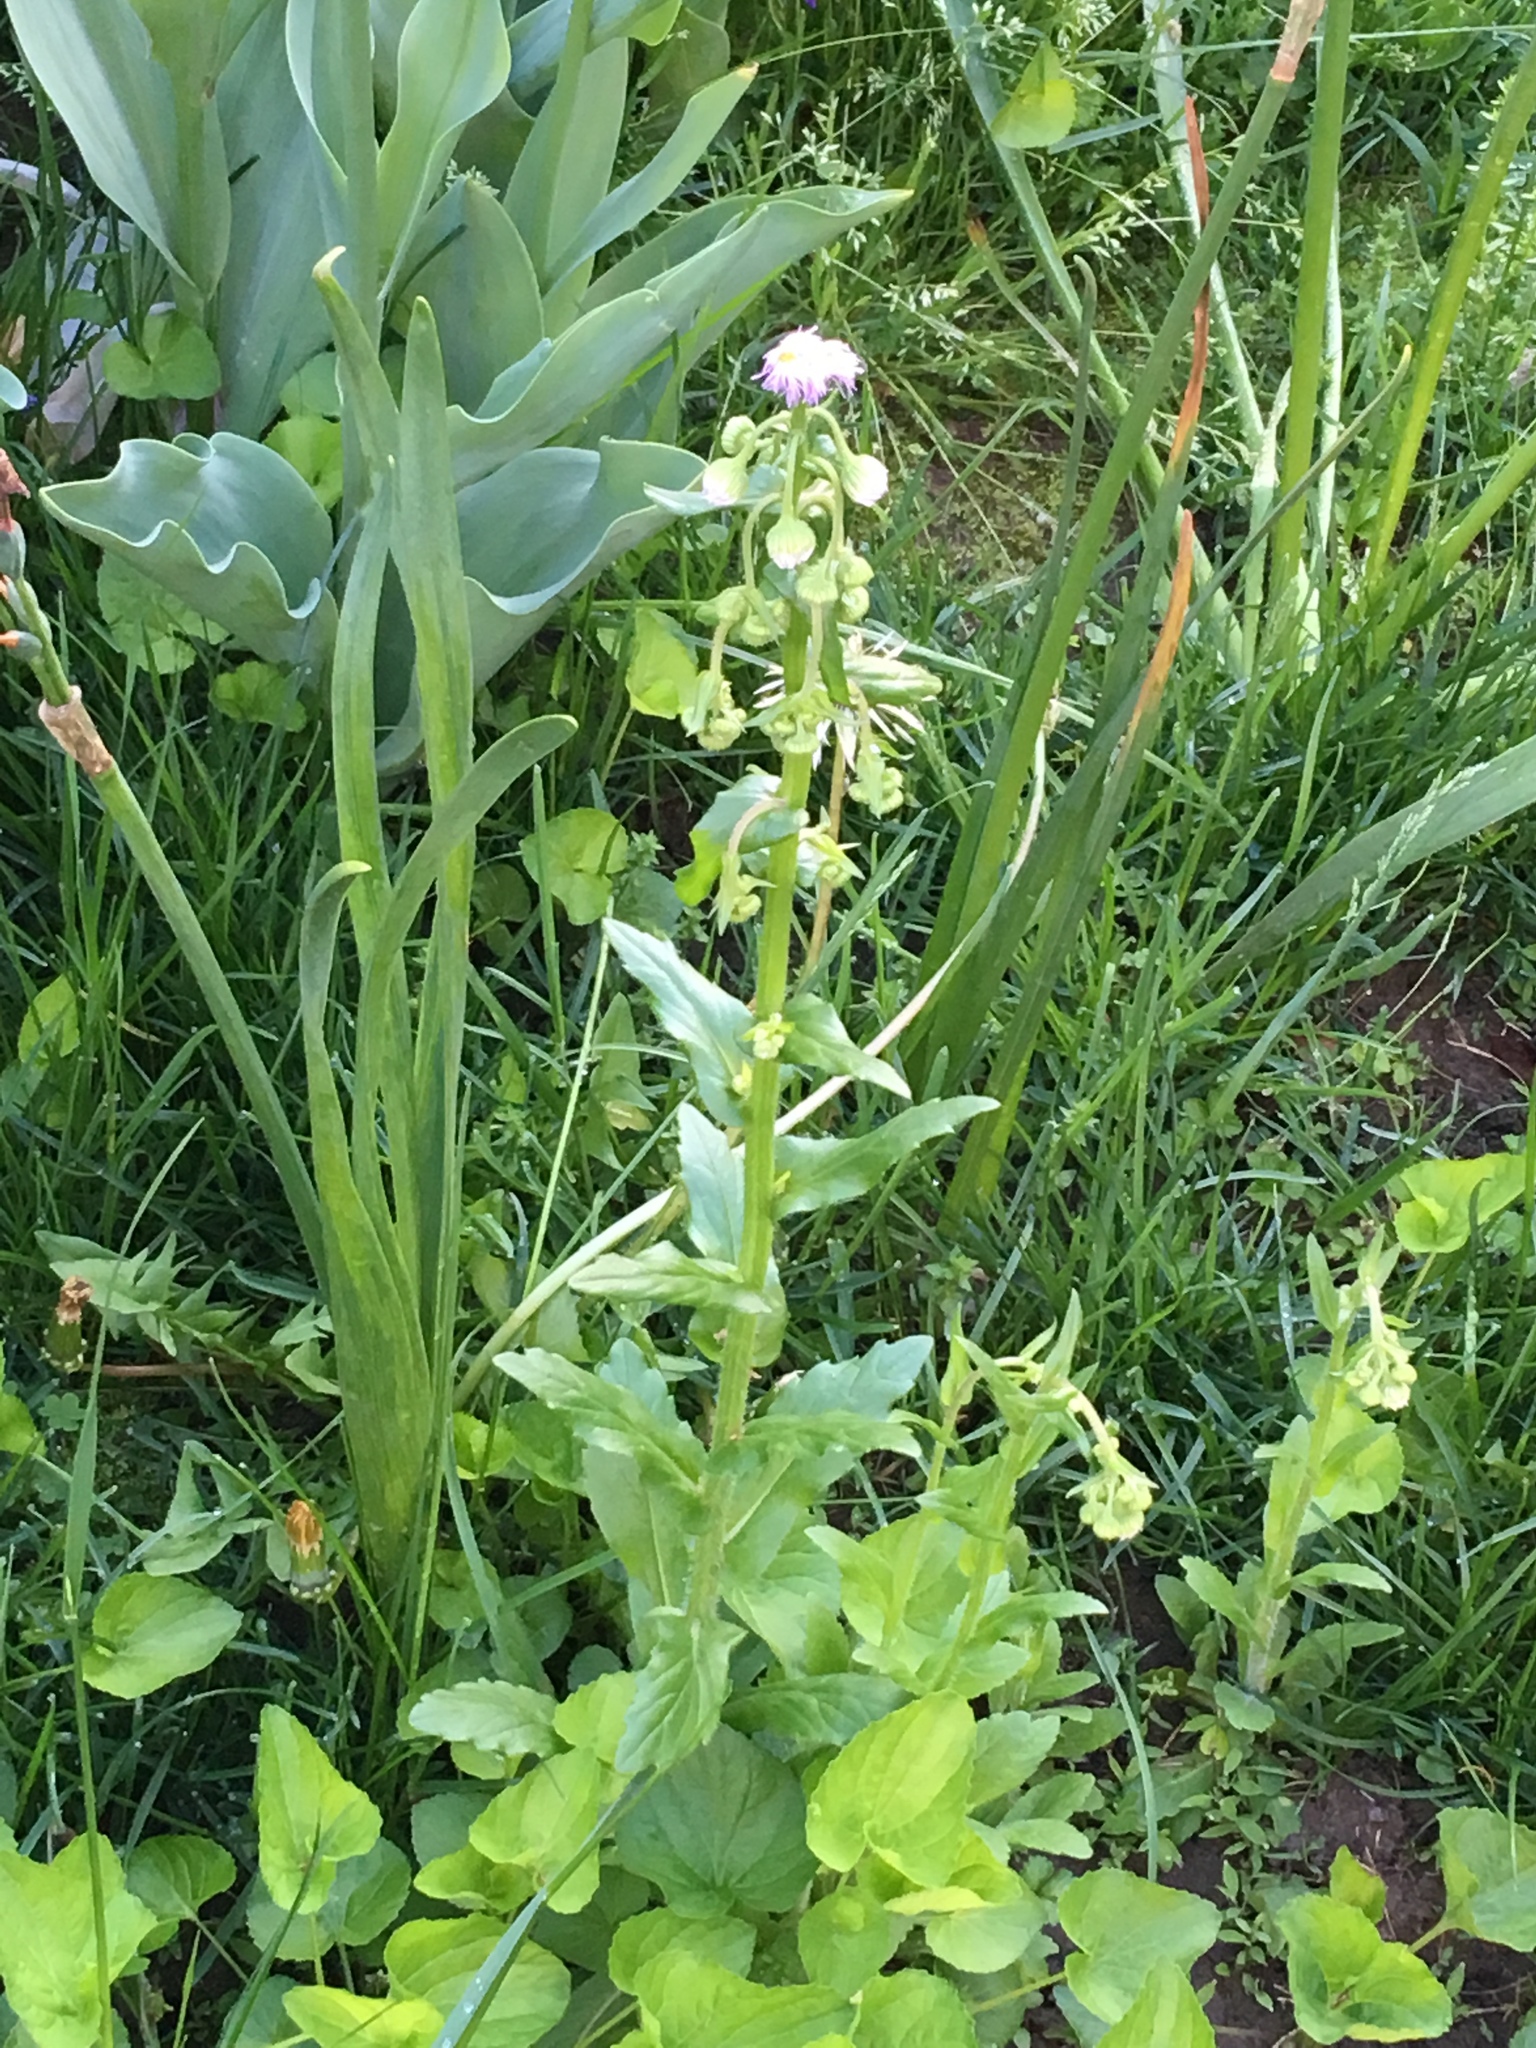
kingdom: Plantae
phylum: Tracheophyta
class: Magnoliopsida
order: Asterales
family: Asteraceae
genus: Erigeron
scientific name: Erigeron philadelphicus
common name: Robin's-plantain
